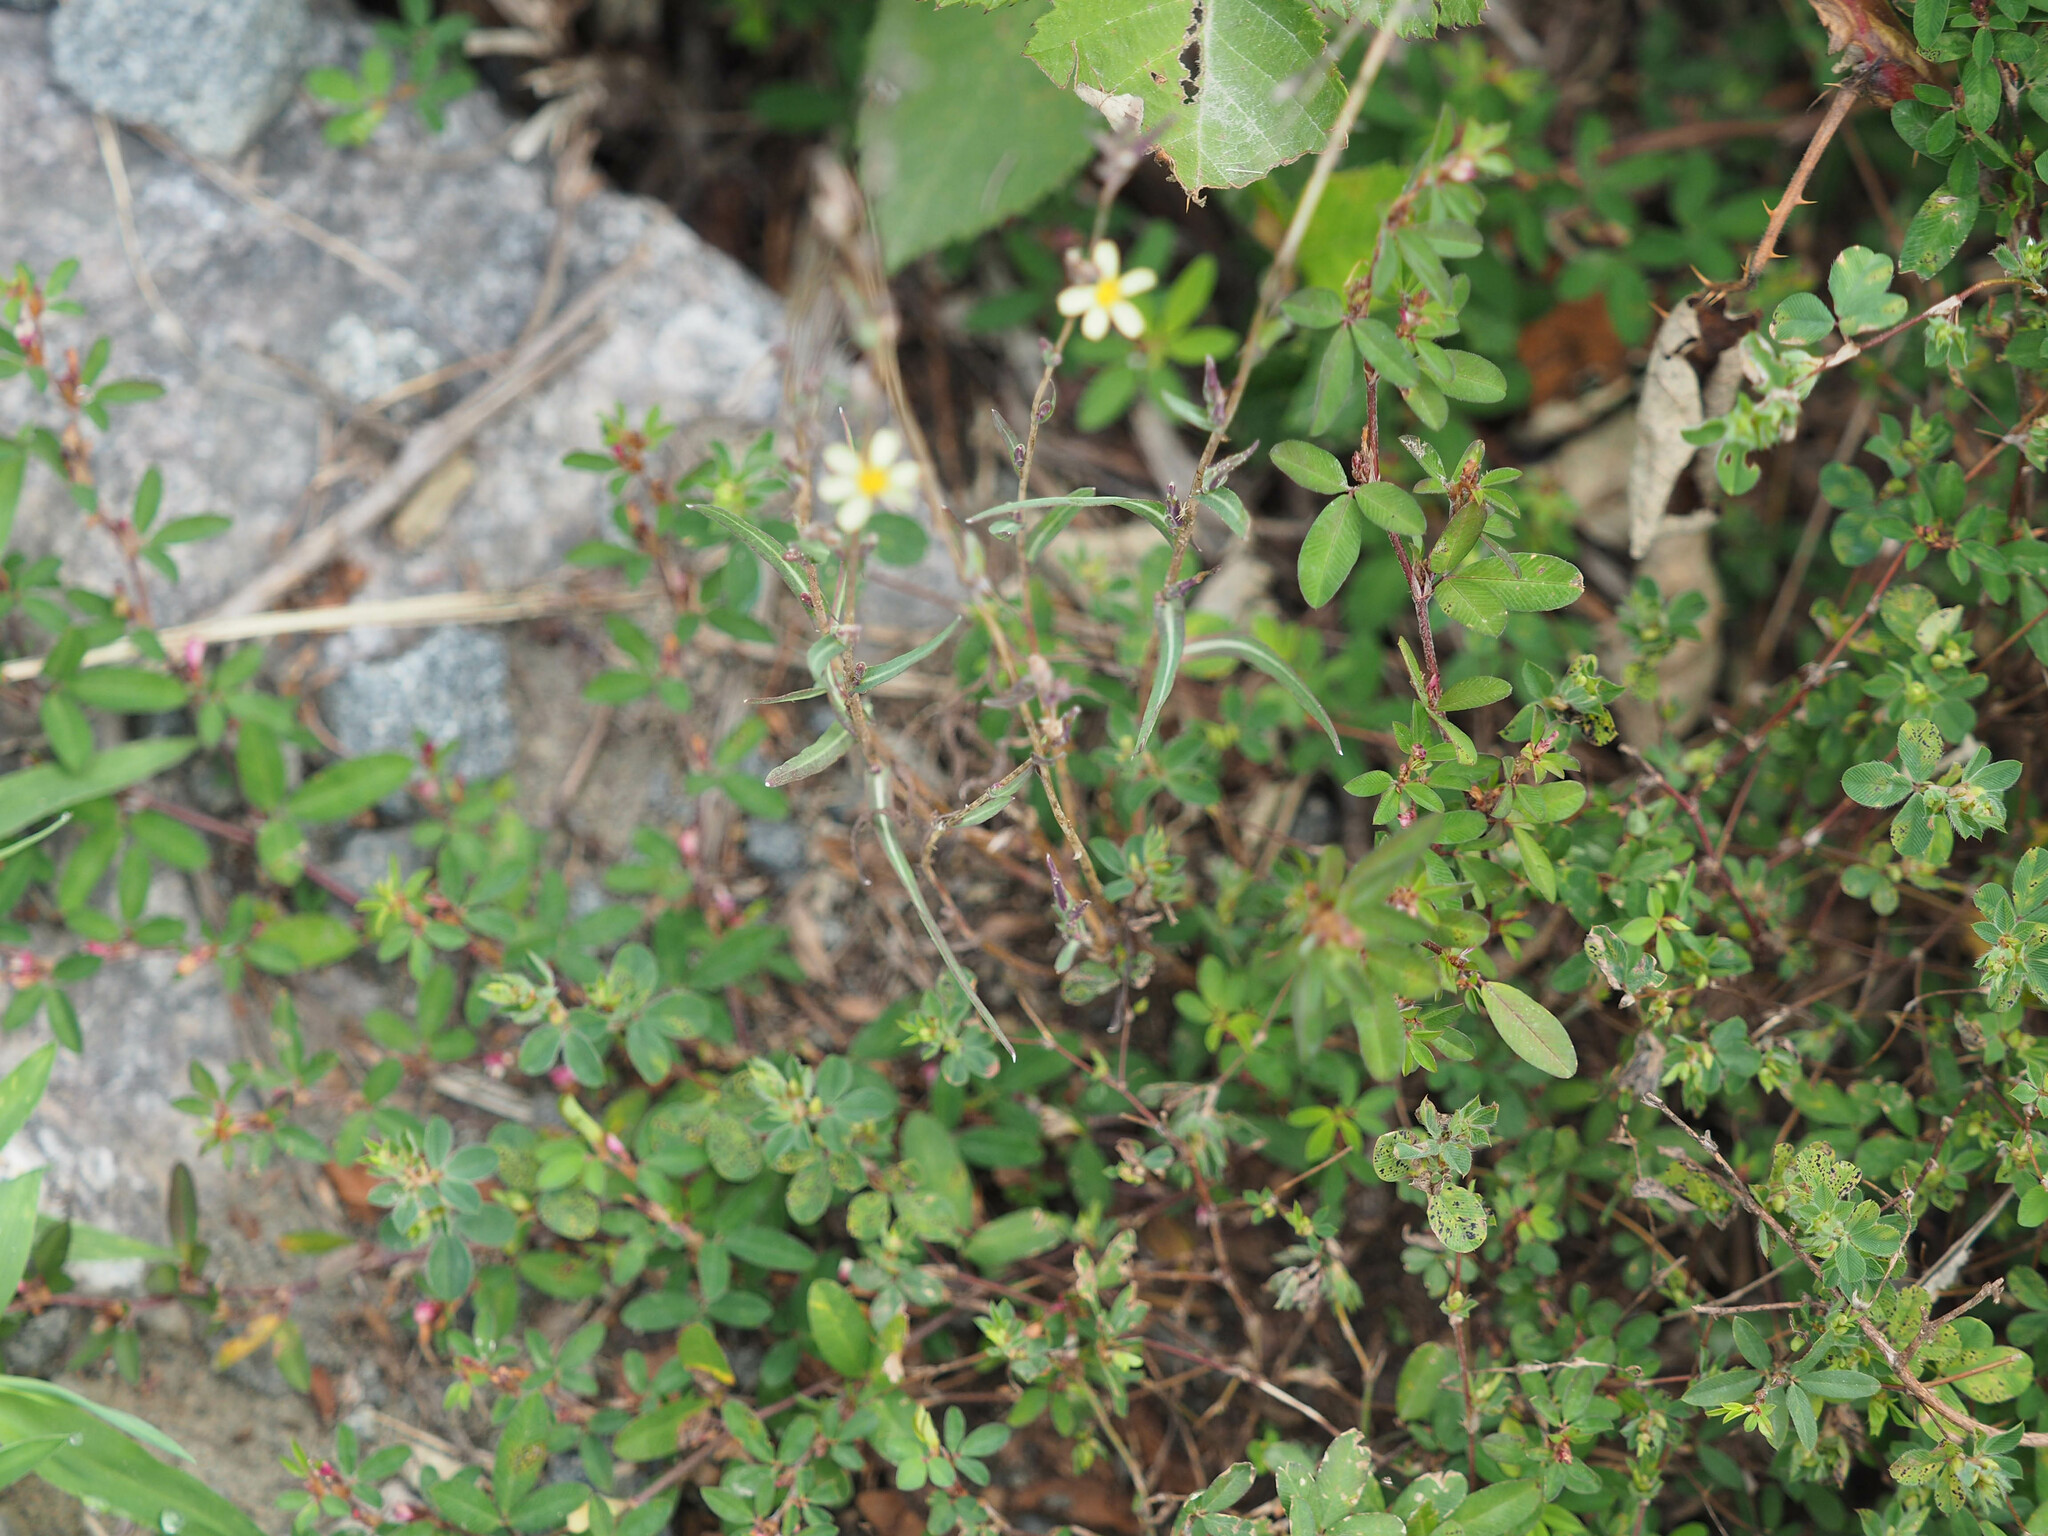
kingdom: Plantae
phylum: Tracheophyta
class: Magnoliopsida
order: Asterales
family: Asteraceae
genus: Lactuca
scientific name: Lactuca saligna
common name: Wild lettuce
